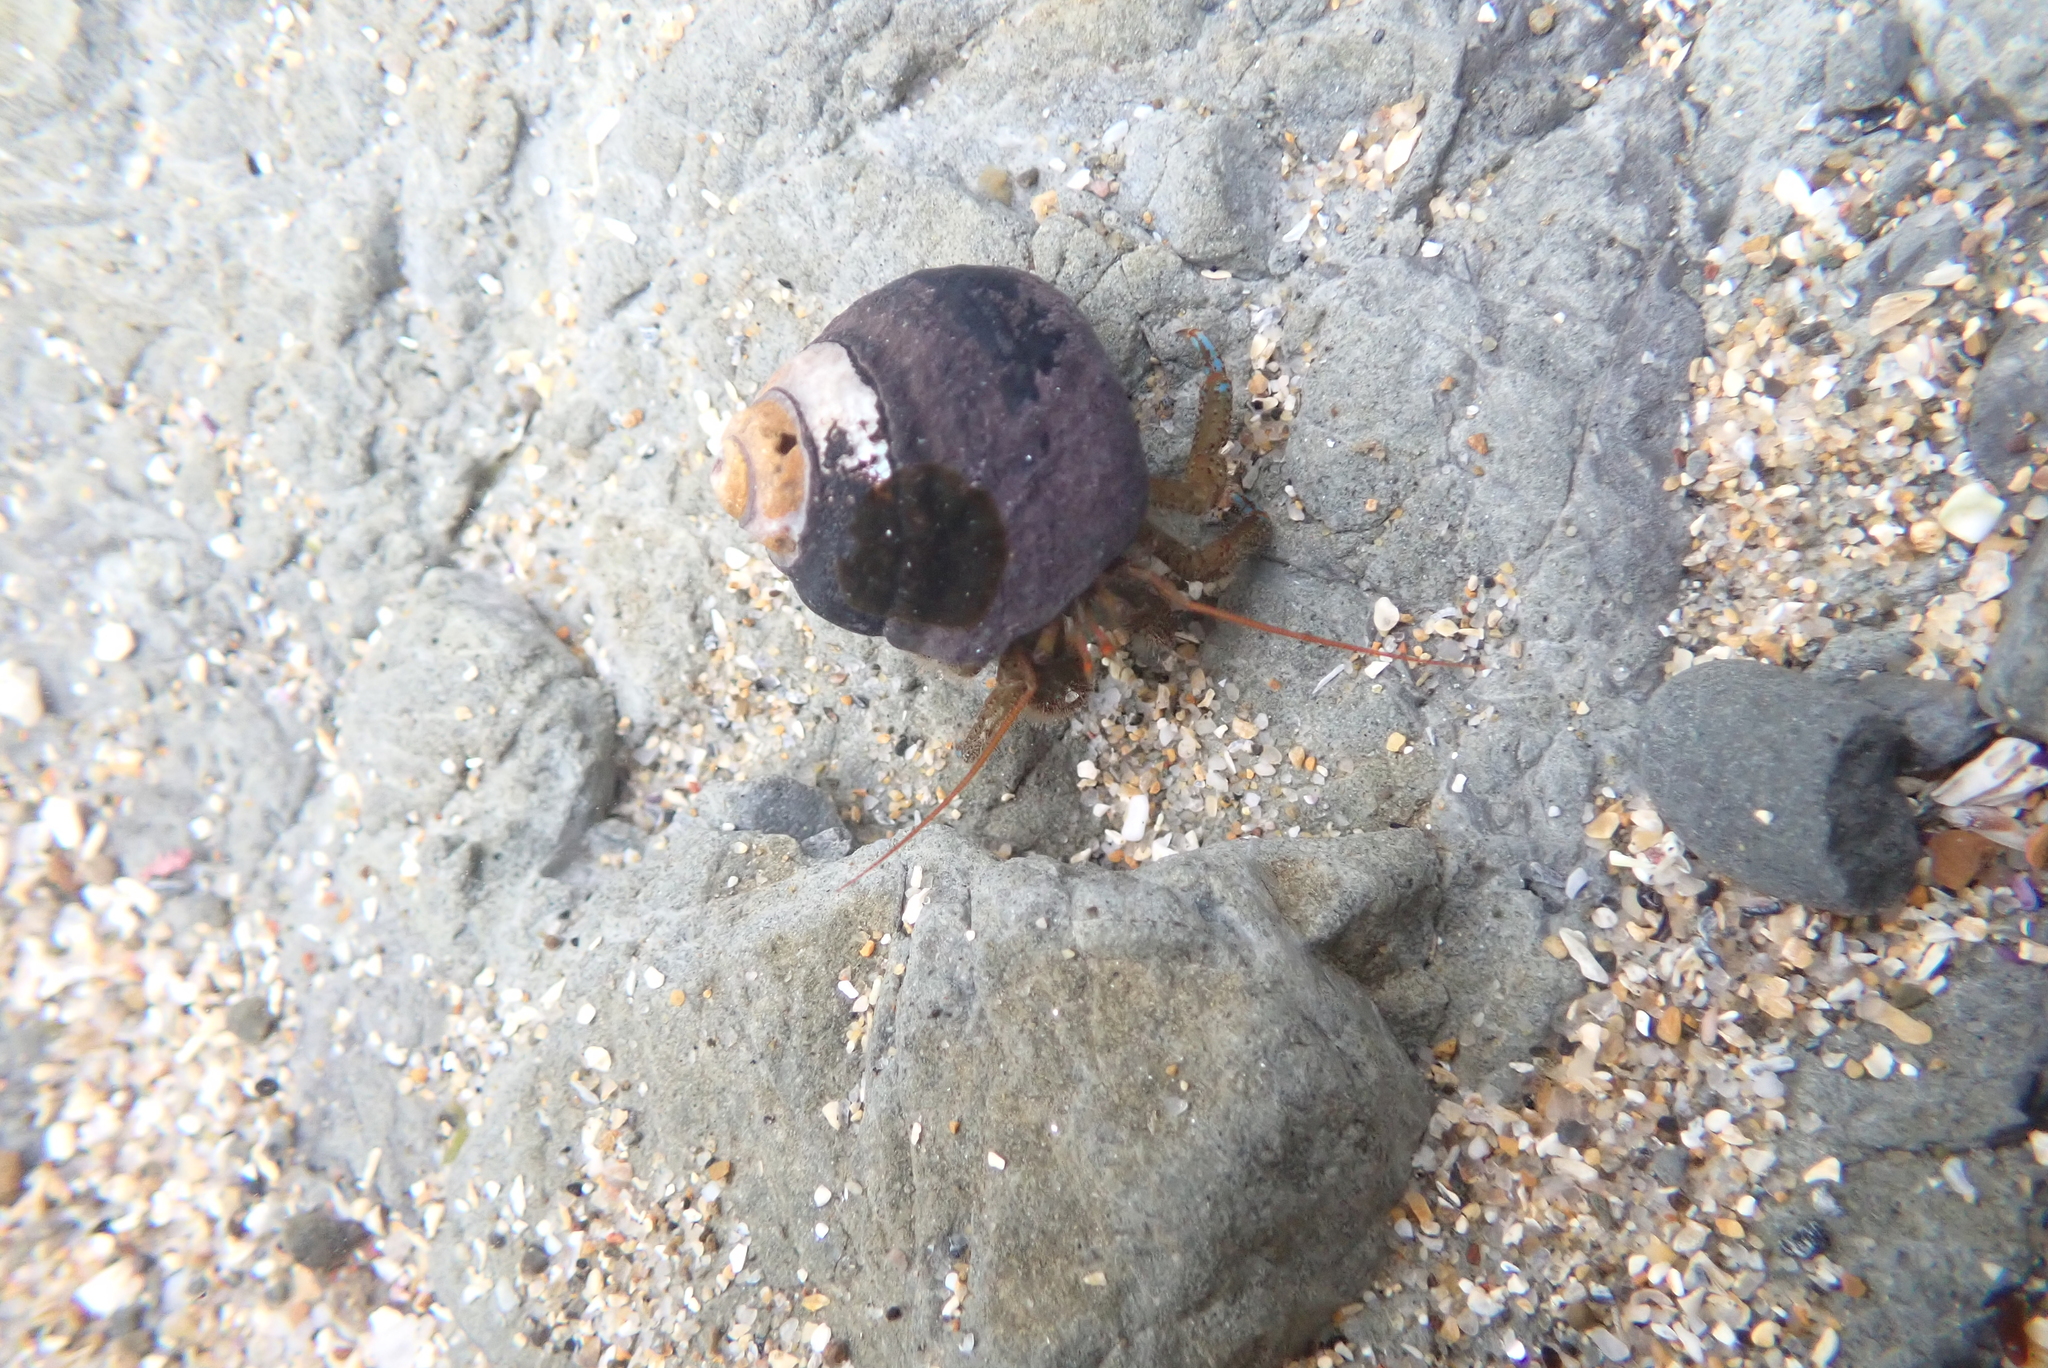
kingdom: Animalia
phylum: Arthropoda
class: Malacostraca
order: Decapoda
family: Paguridae
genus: Pagurus
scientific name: Pagurus samuelis
